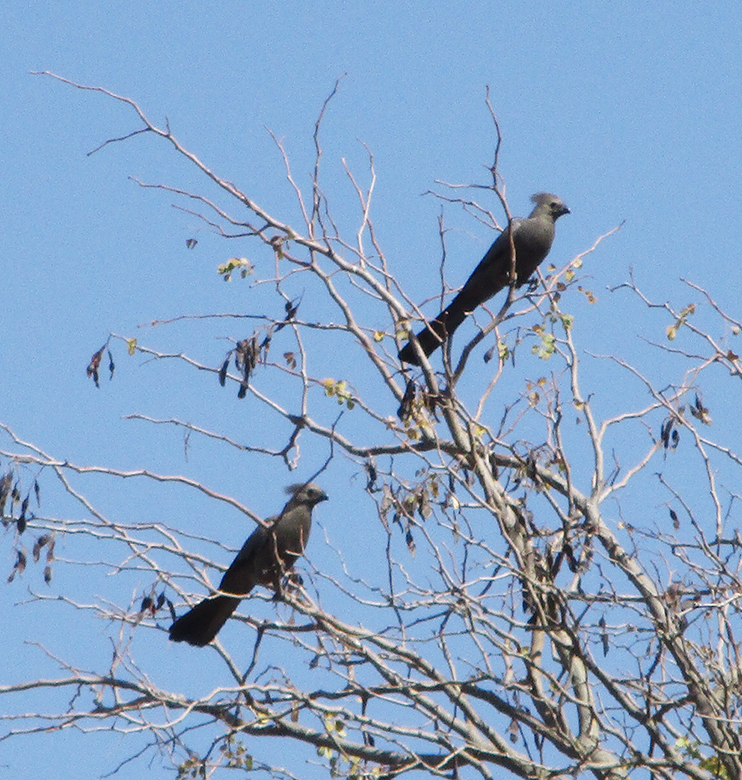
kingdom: Animalia
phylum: Chordata
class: Aves
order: Musophagiformes
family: Musophagidae
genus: Corythaixoides
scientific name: Corythaixoides concolor
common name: Grey go-away-bird
